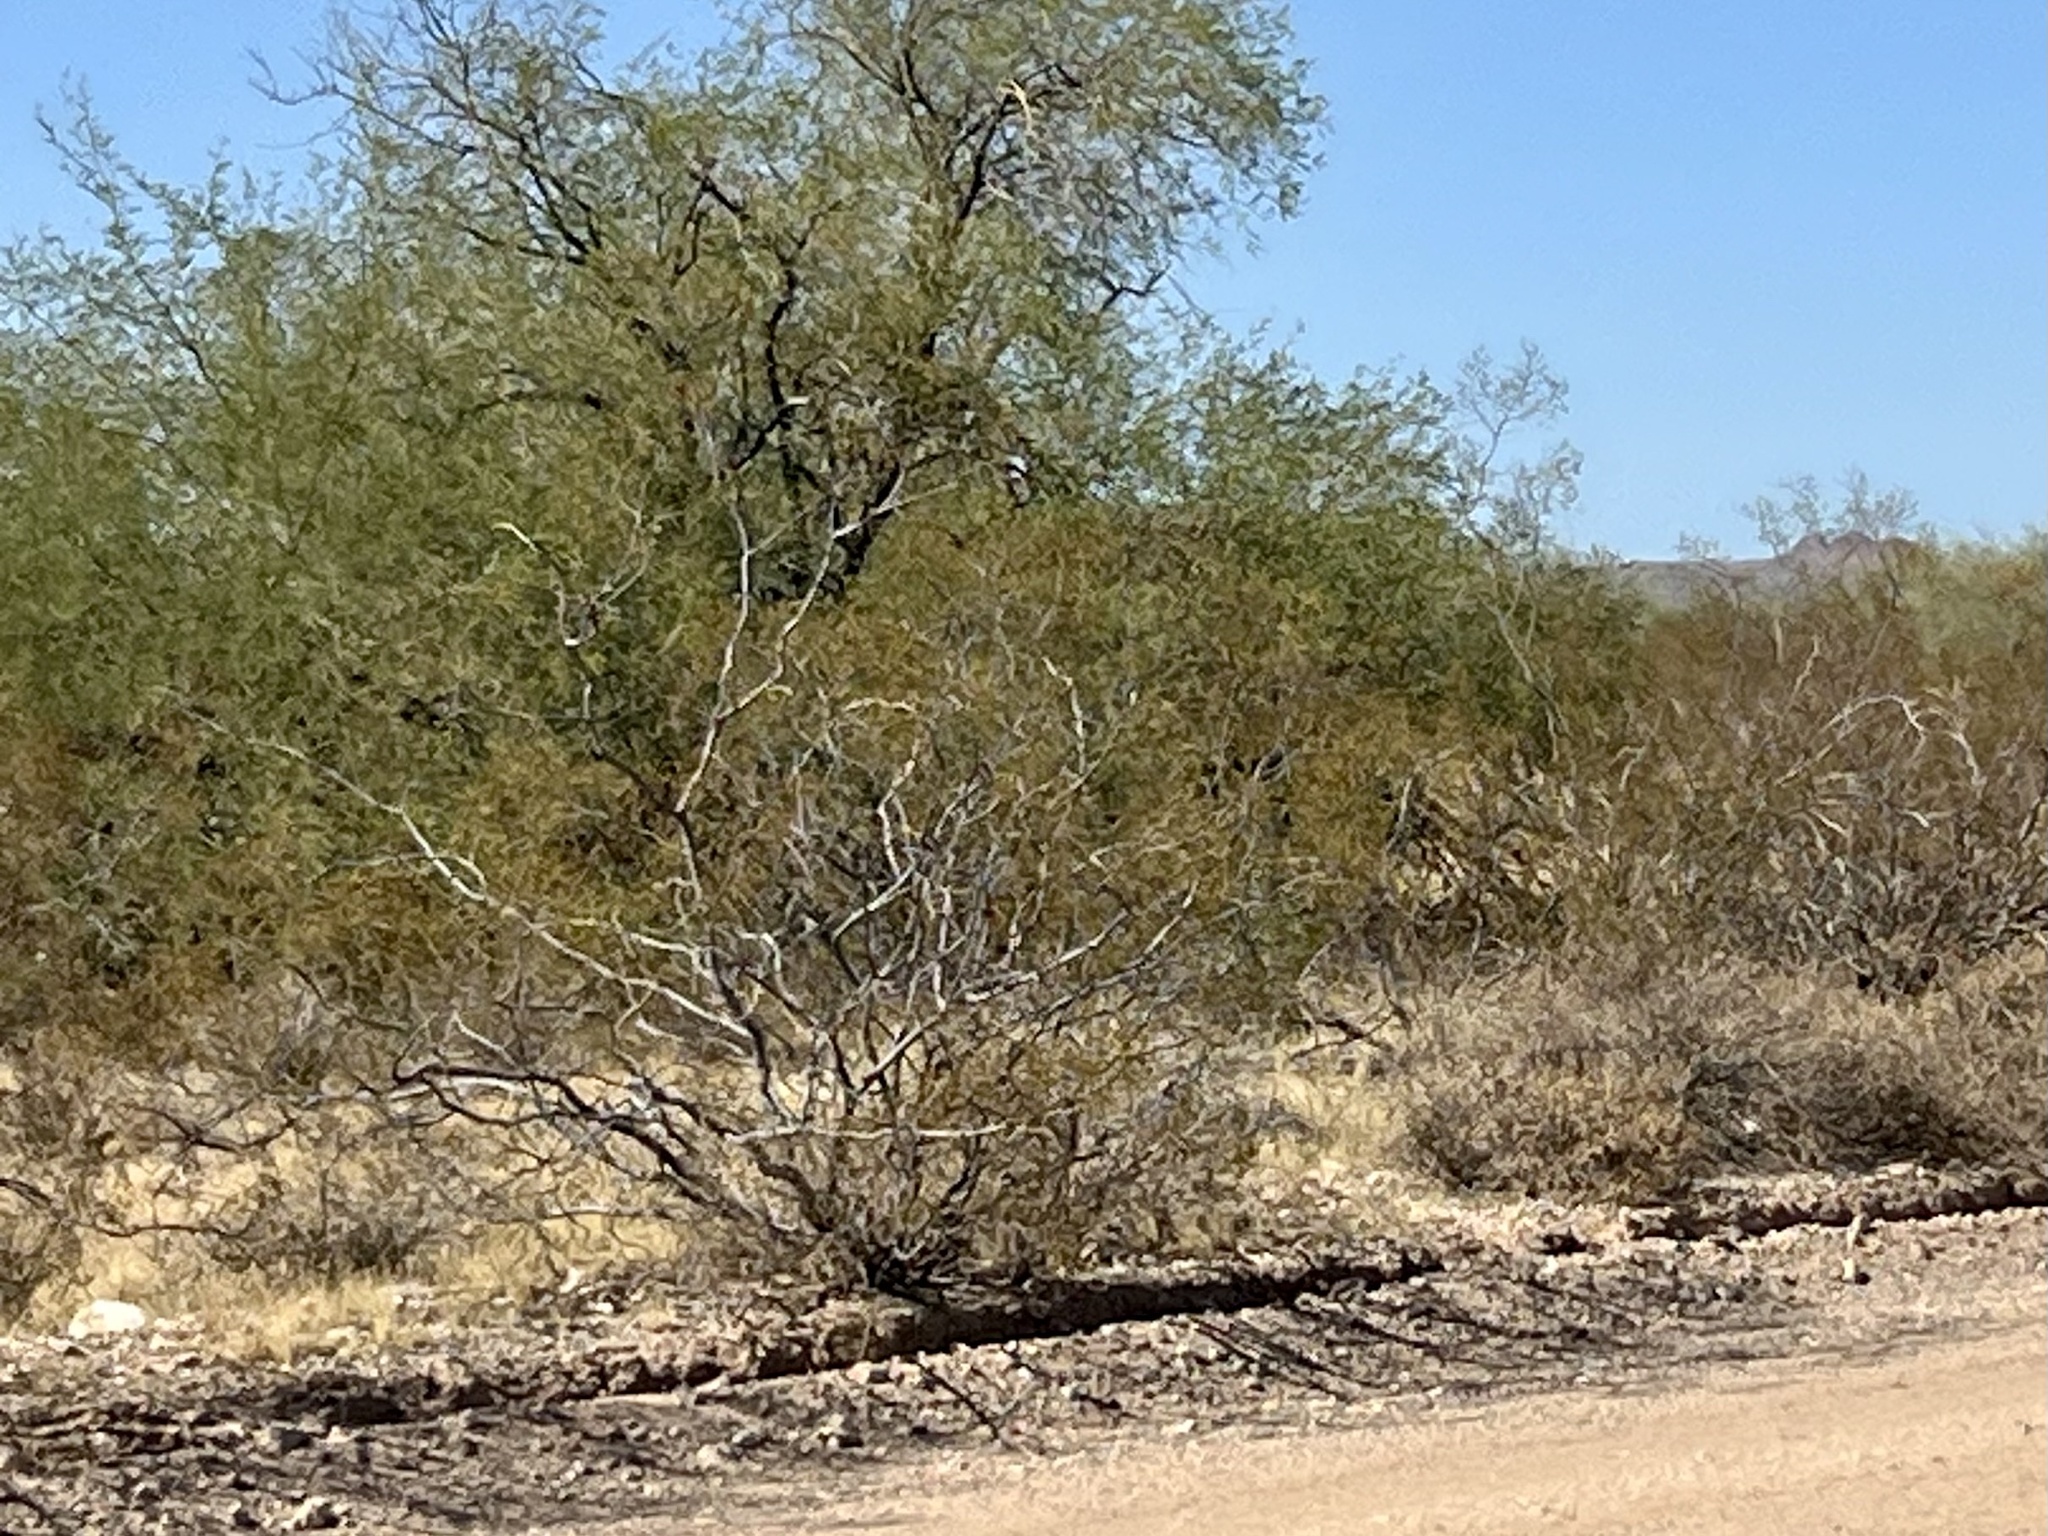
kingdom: Plantae
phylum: Tracheophyta
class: Magnoliopsida
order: Zygophyllales
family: Zygophyllaceae
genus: Larrea
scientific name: Larrea tridentata
